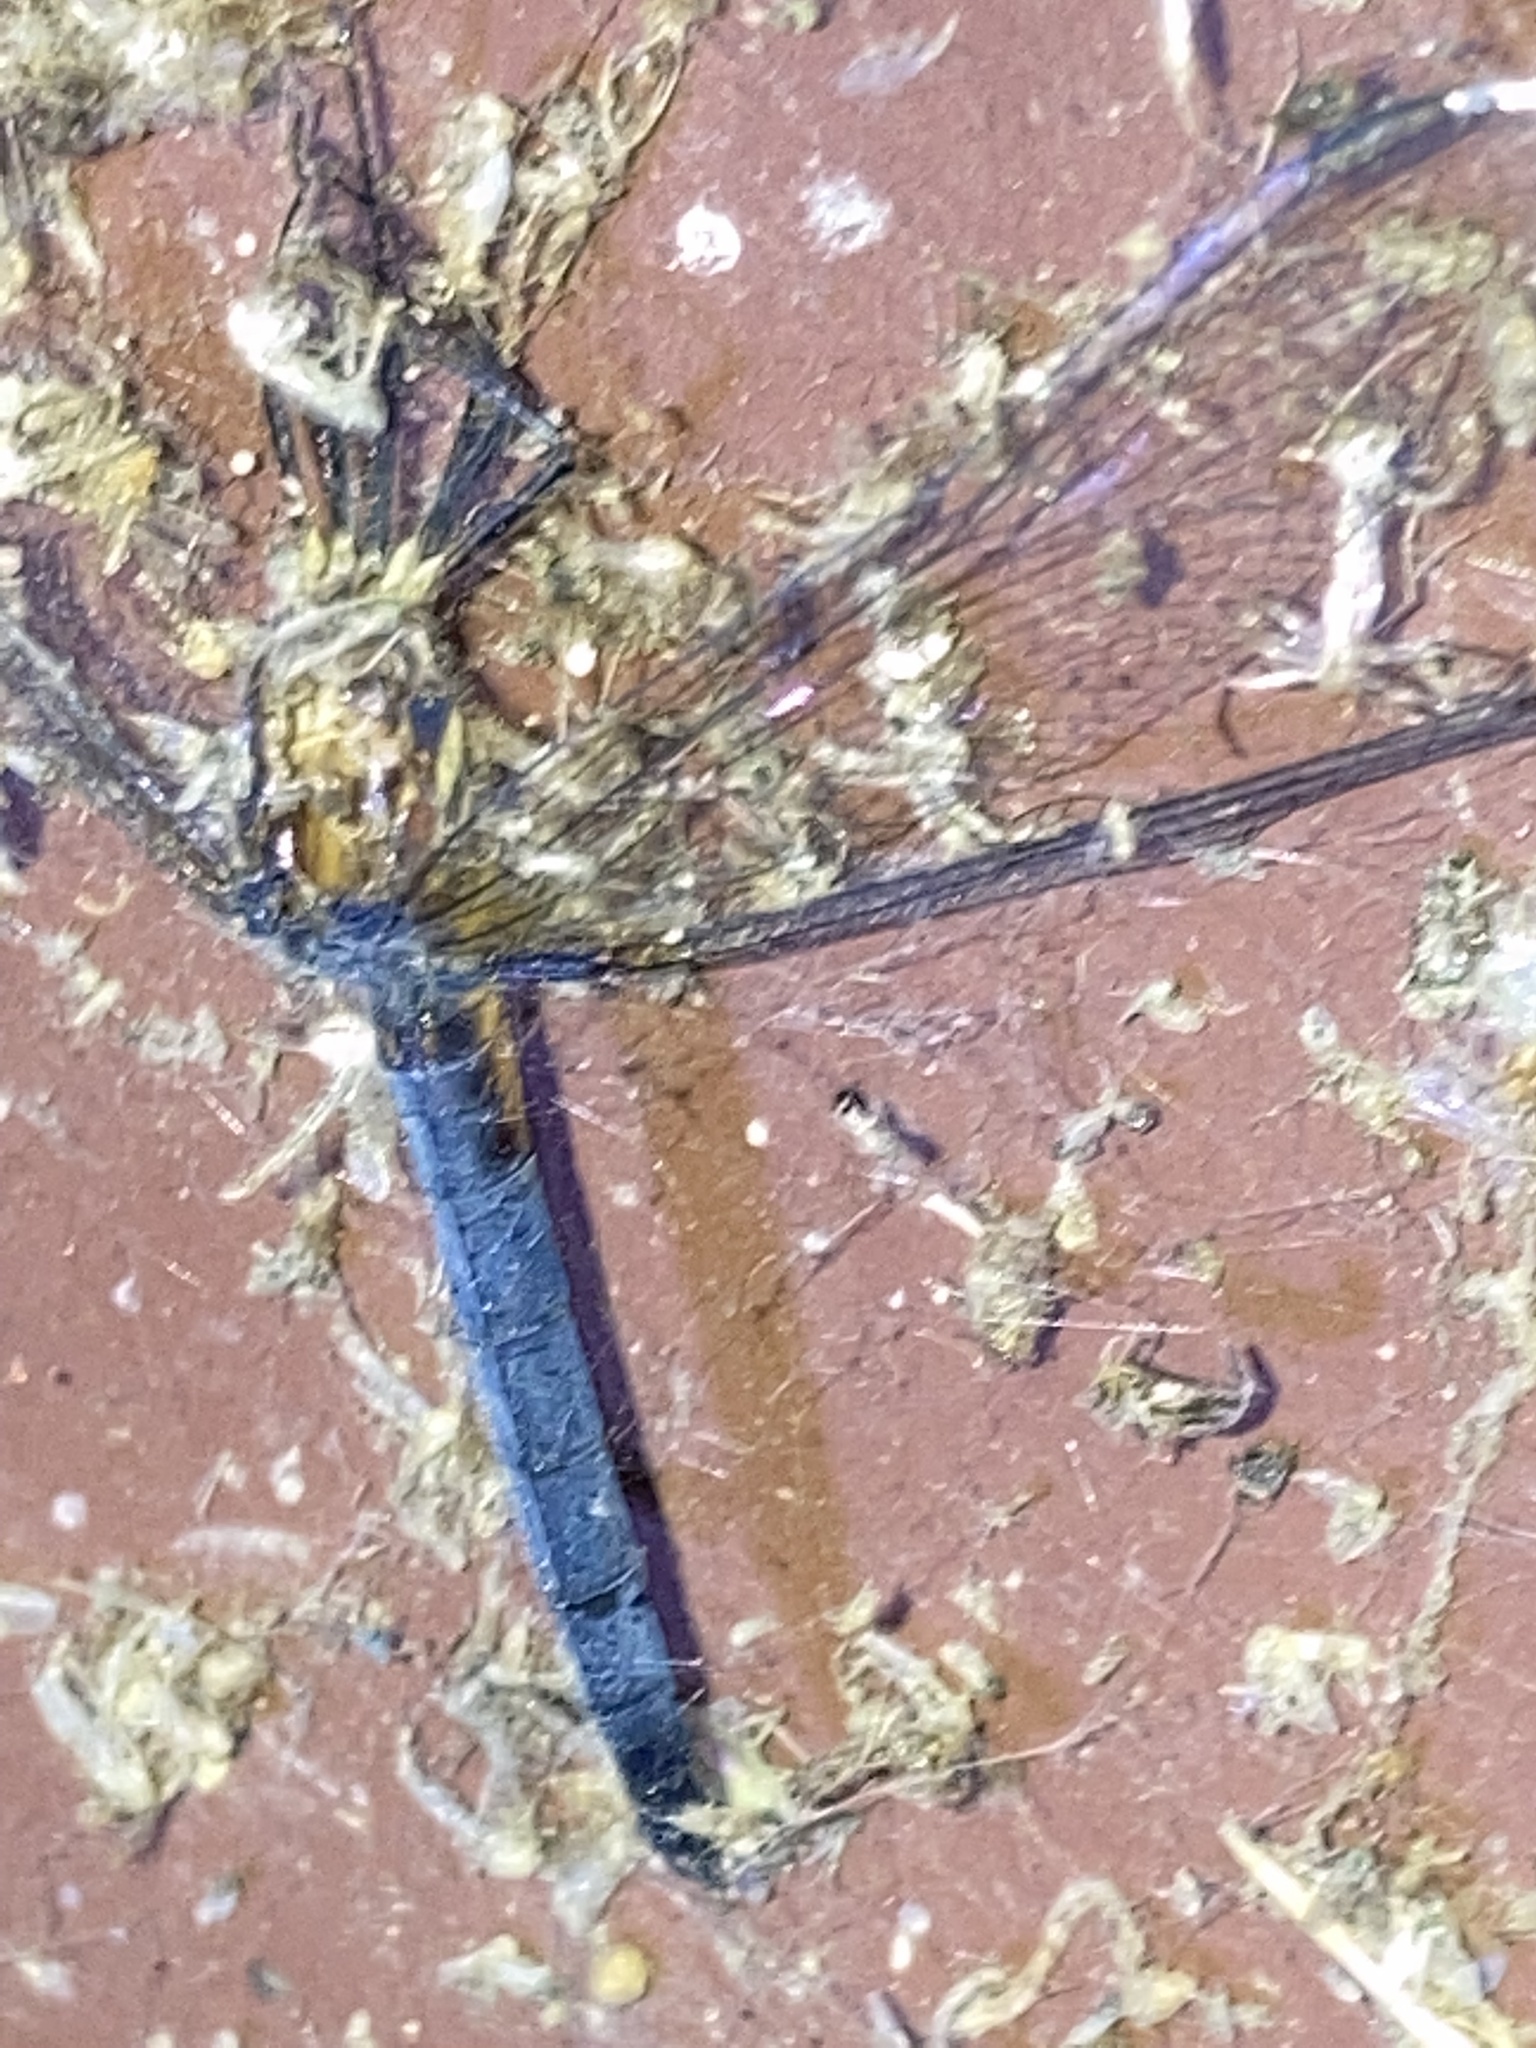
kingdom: Animalia
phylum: Arthropoda
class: Insecta
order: Odonata
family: Libellulidae
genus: Pachydiplax
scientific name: Pachydiplax longipennis
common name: Blue dasher
